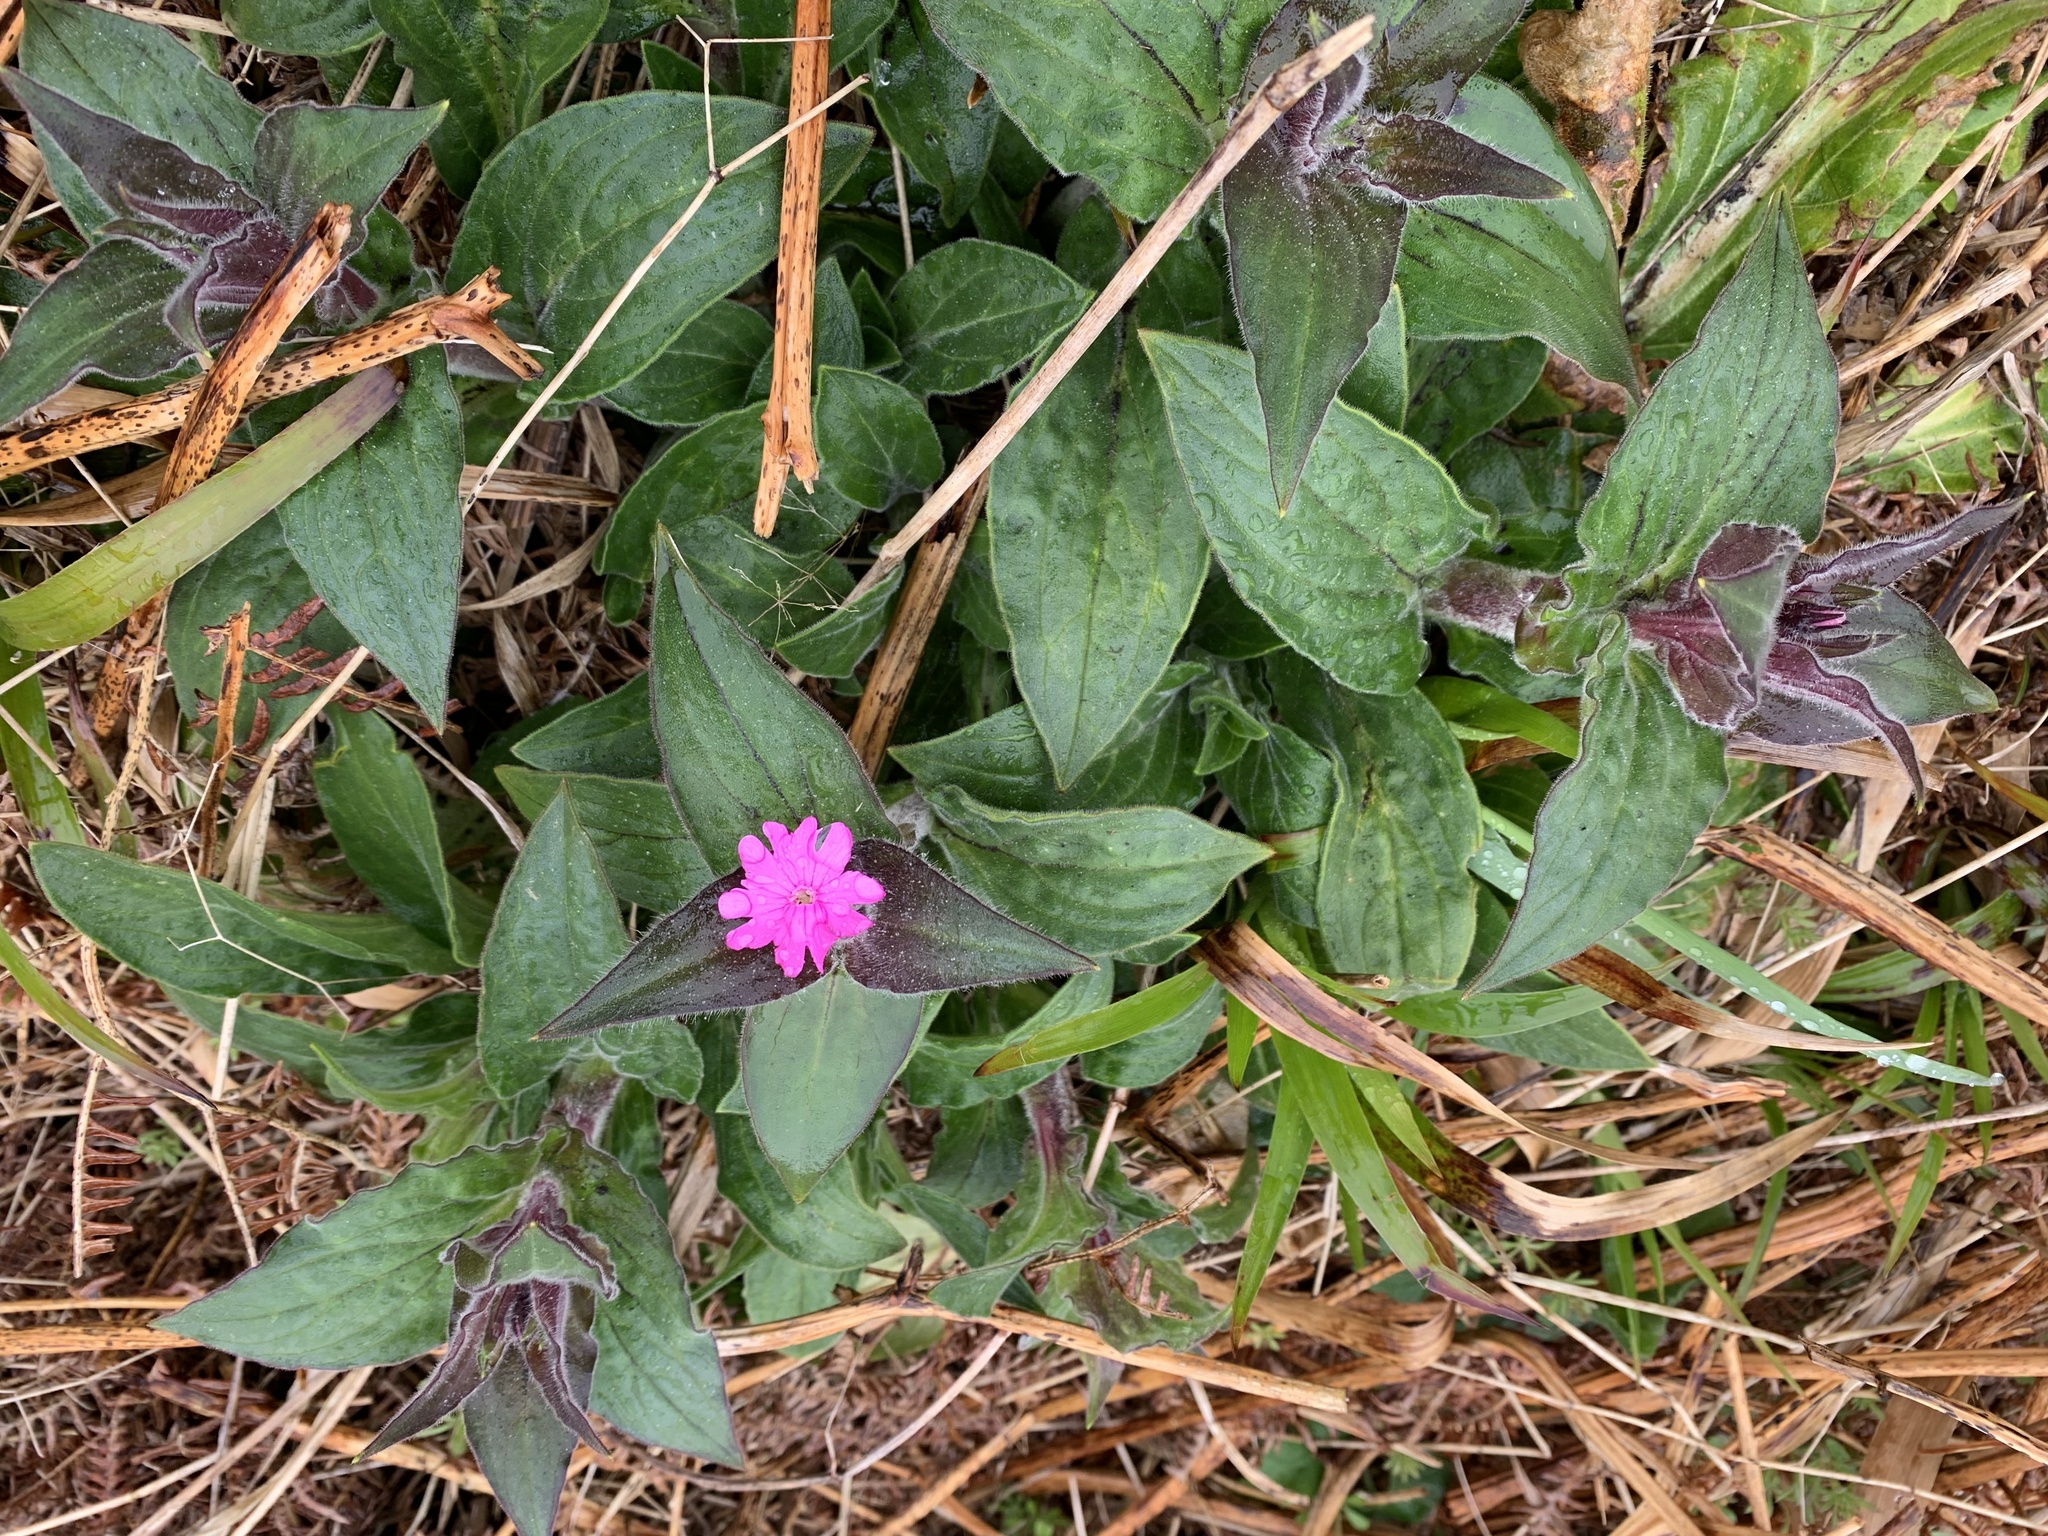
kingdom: Plantae
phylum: Tracheophyta
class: Magnoliopsida
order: Caryophyllales
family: Caryophyllaceae
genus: Silene
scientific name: Silene dioica
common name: Red campion
